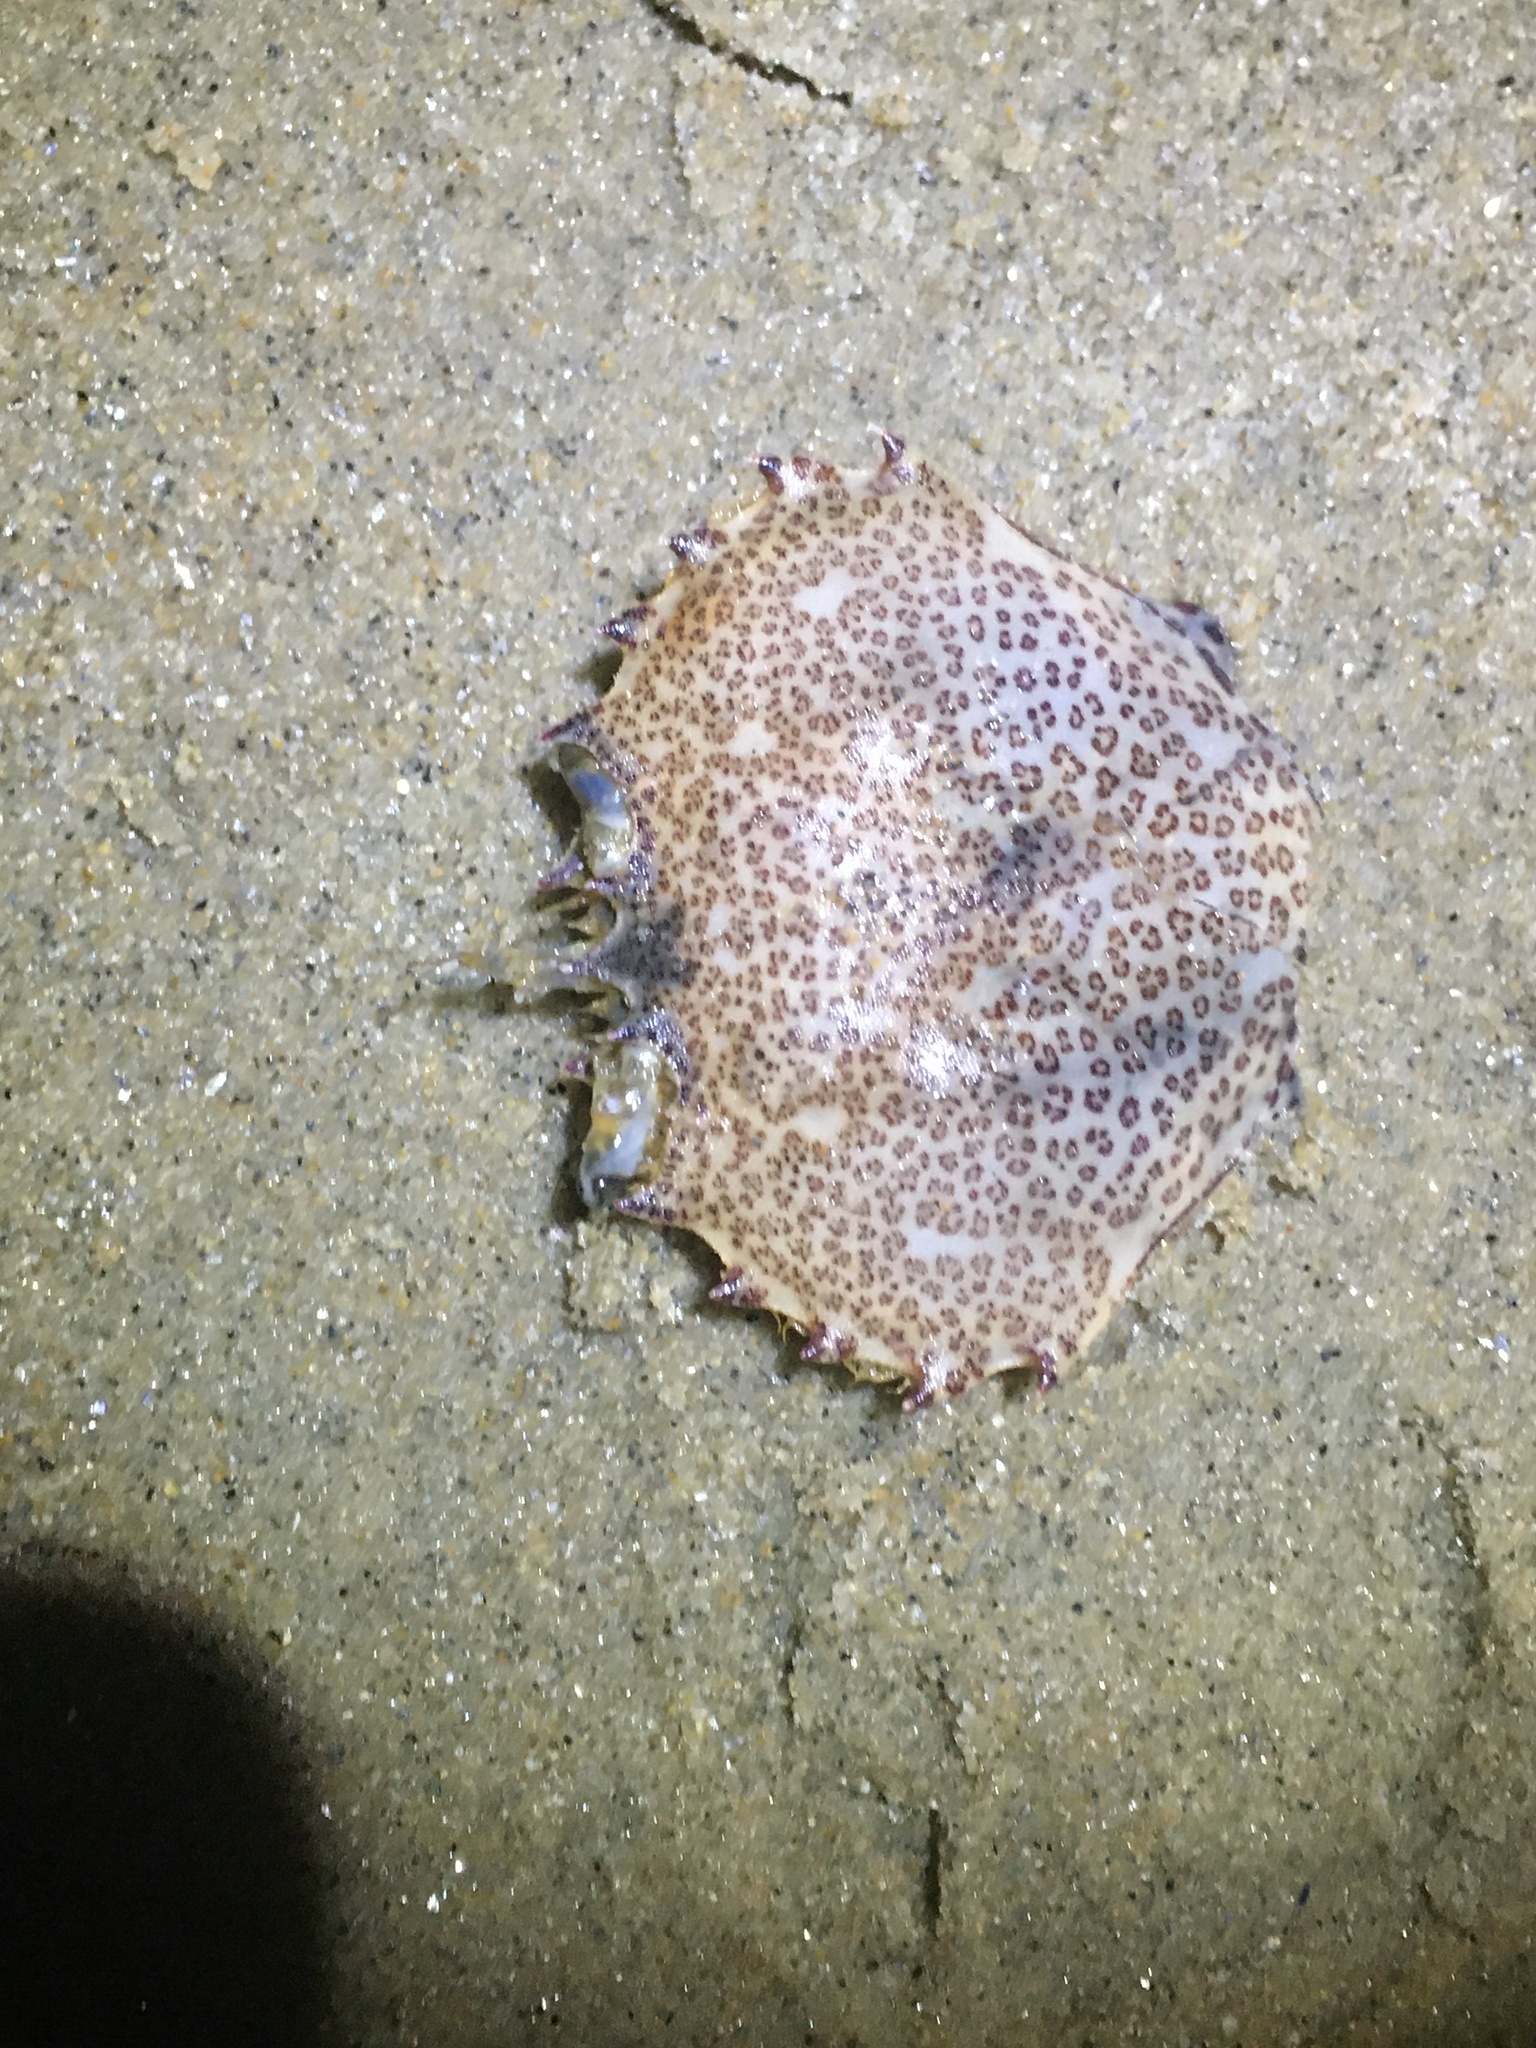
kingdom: Animalia
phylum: Arthropoda
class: Malacostraca
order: Decapoda
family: Ovalipidae
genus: Ovalipes
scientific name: Ovalipes ocellatus
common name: Lady crab
